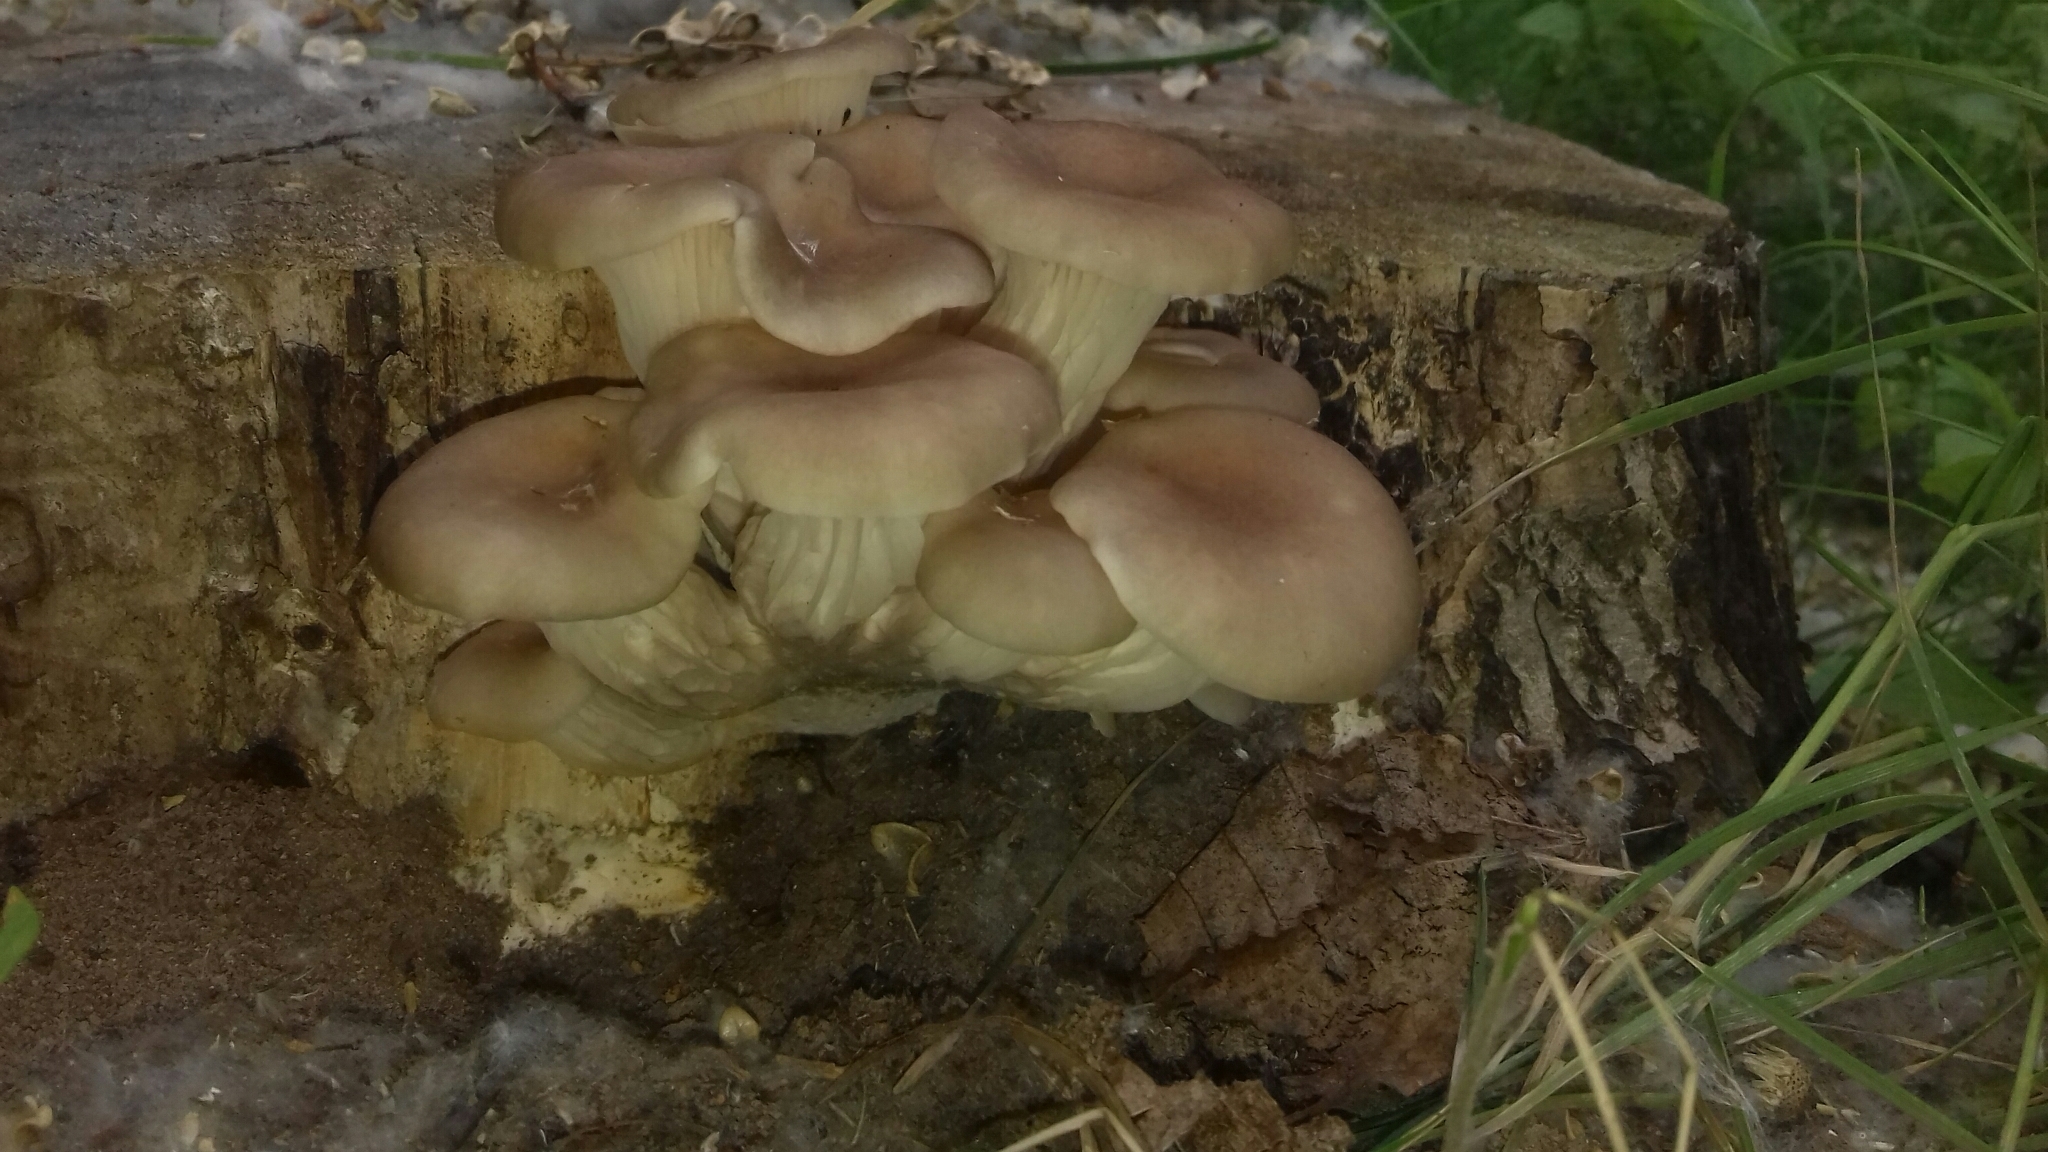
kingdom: Fungi
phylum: Basidiomycota
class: Agaricomycetes
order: Agaricales
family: Pleurotaceae
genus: Pleurotus
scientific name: Pleurotus cornucopiae
